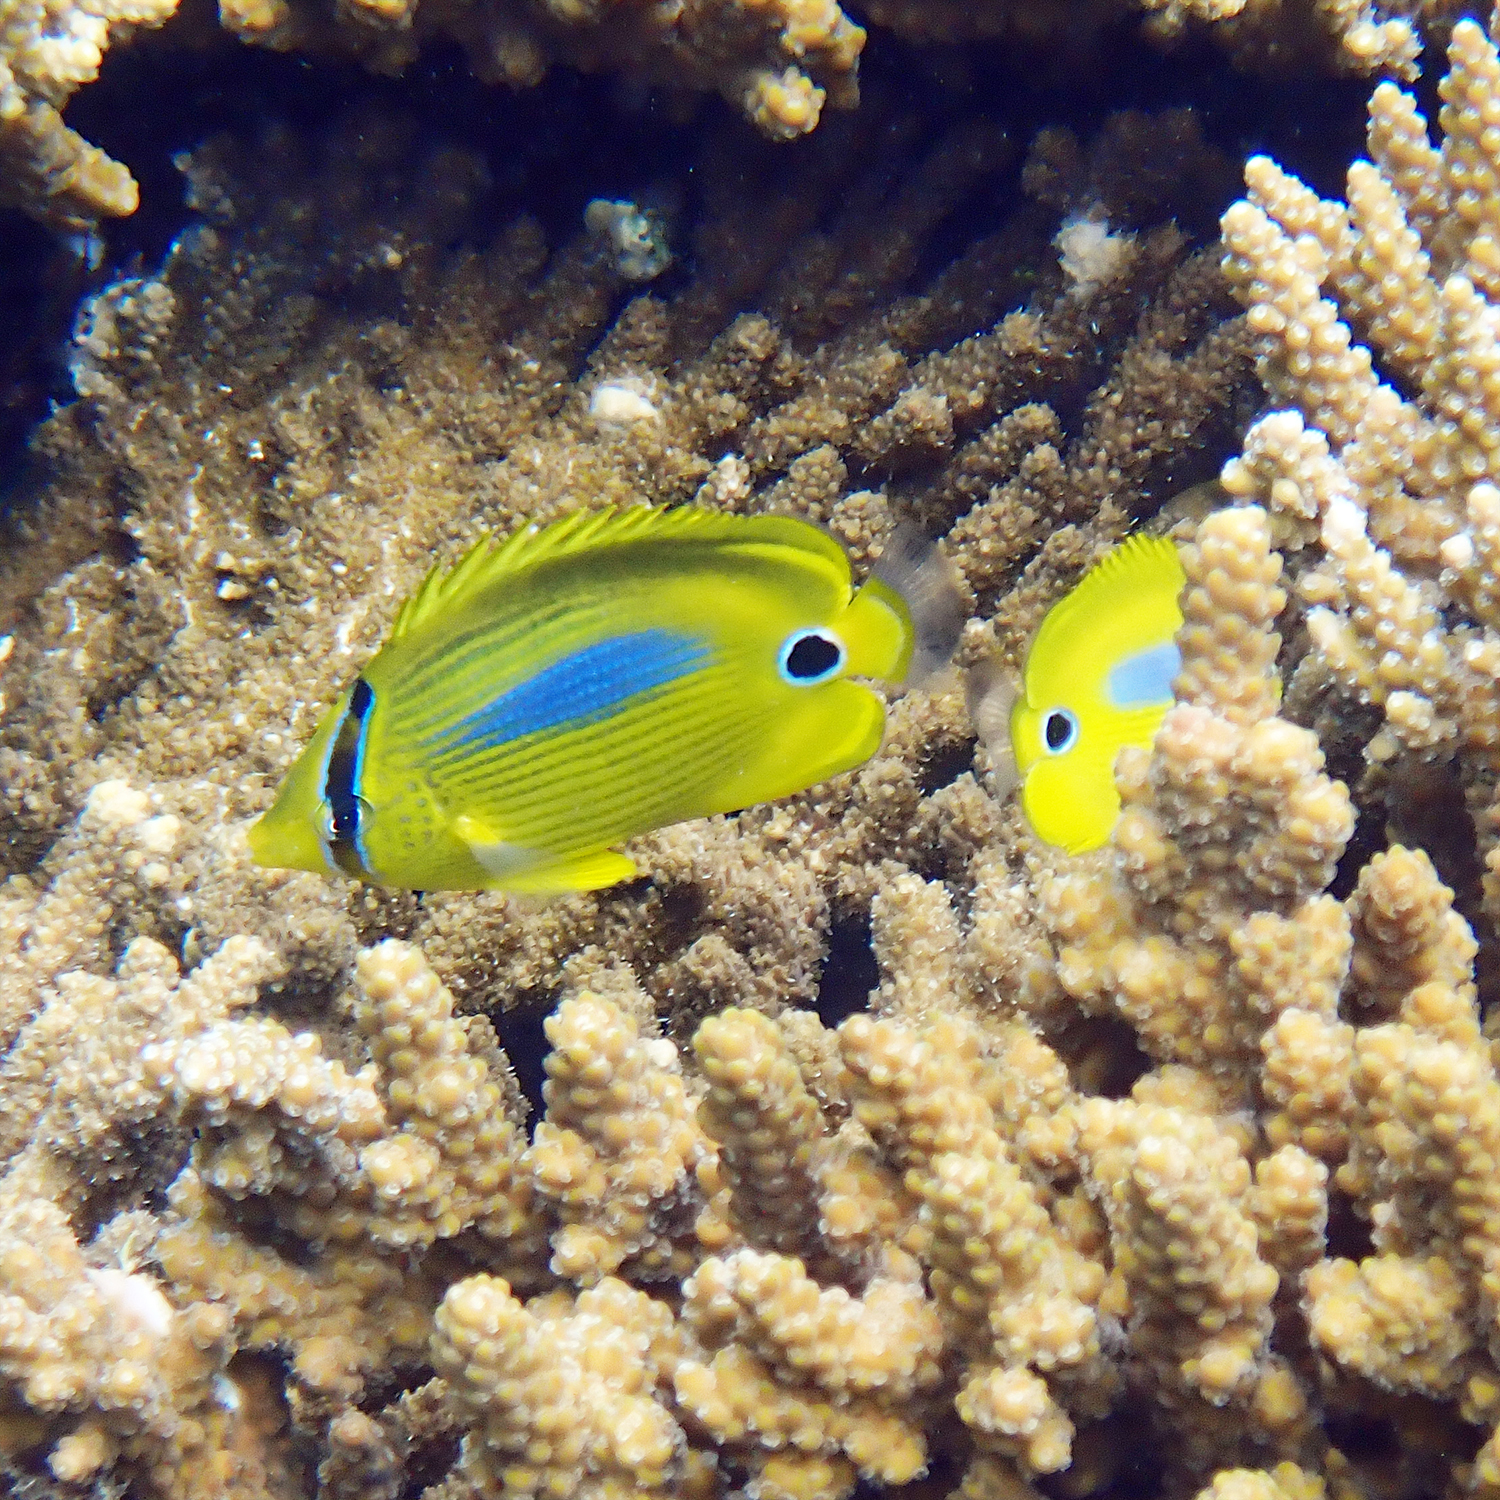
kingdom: Animalia
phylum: Chordata
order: Perciformes
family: Chaetodontidae
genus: Chaetodon
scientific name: Chaetodon plebeius
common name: Bluespot butterflyfish
